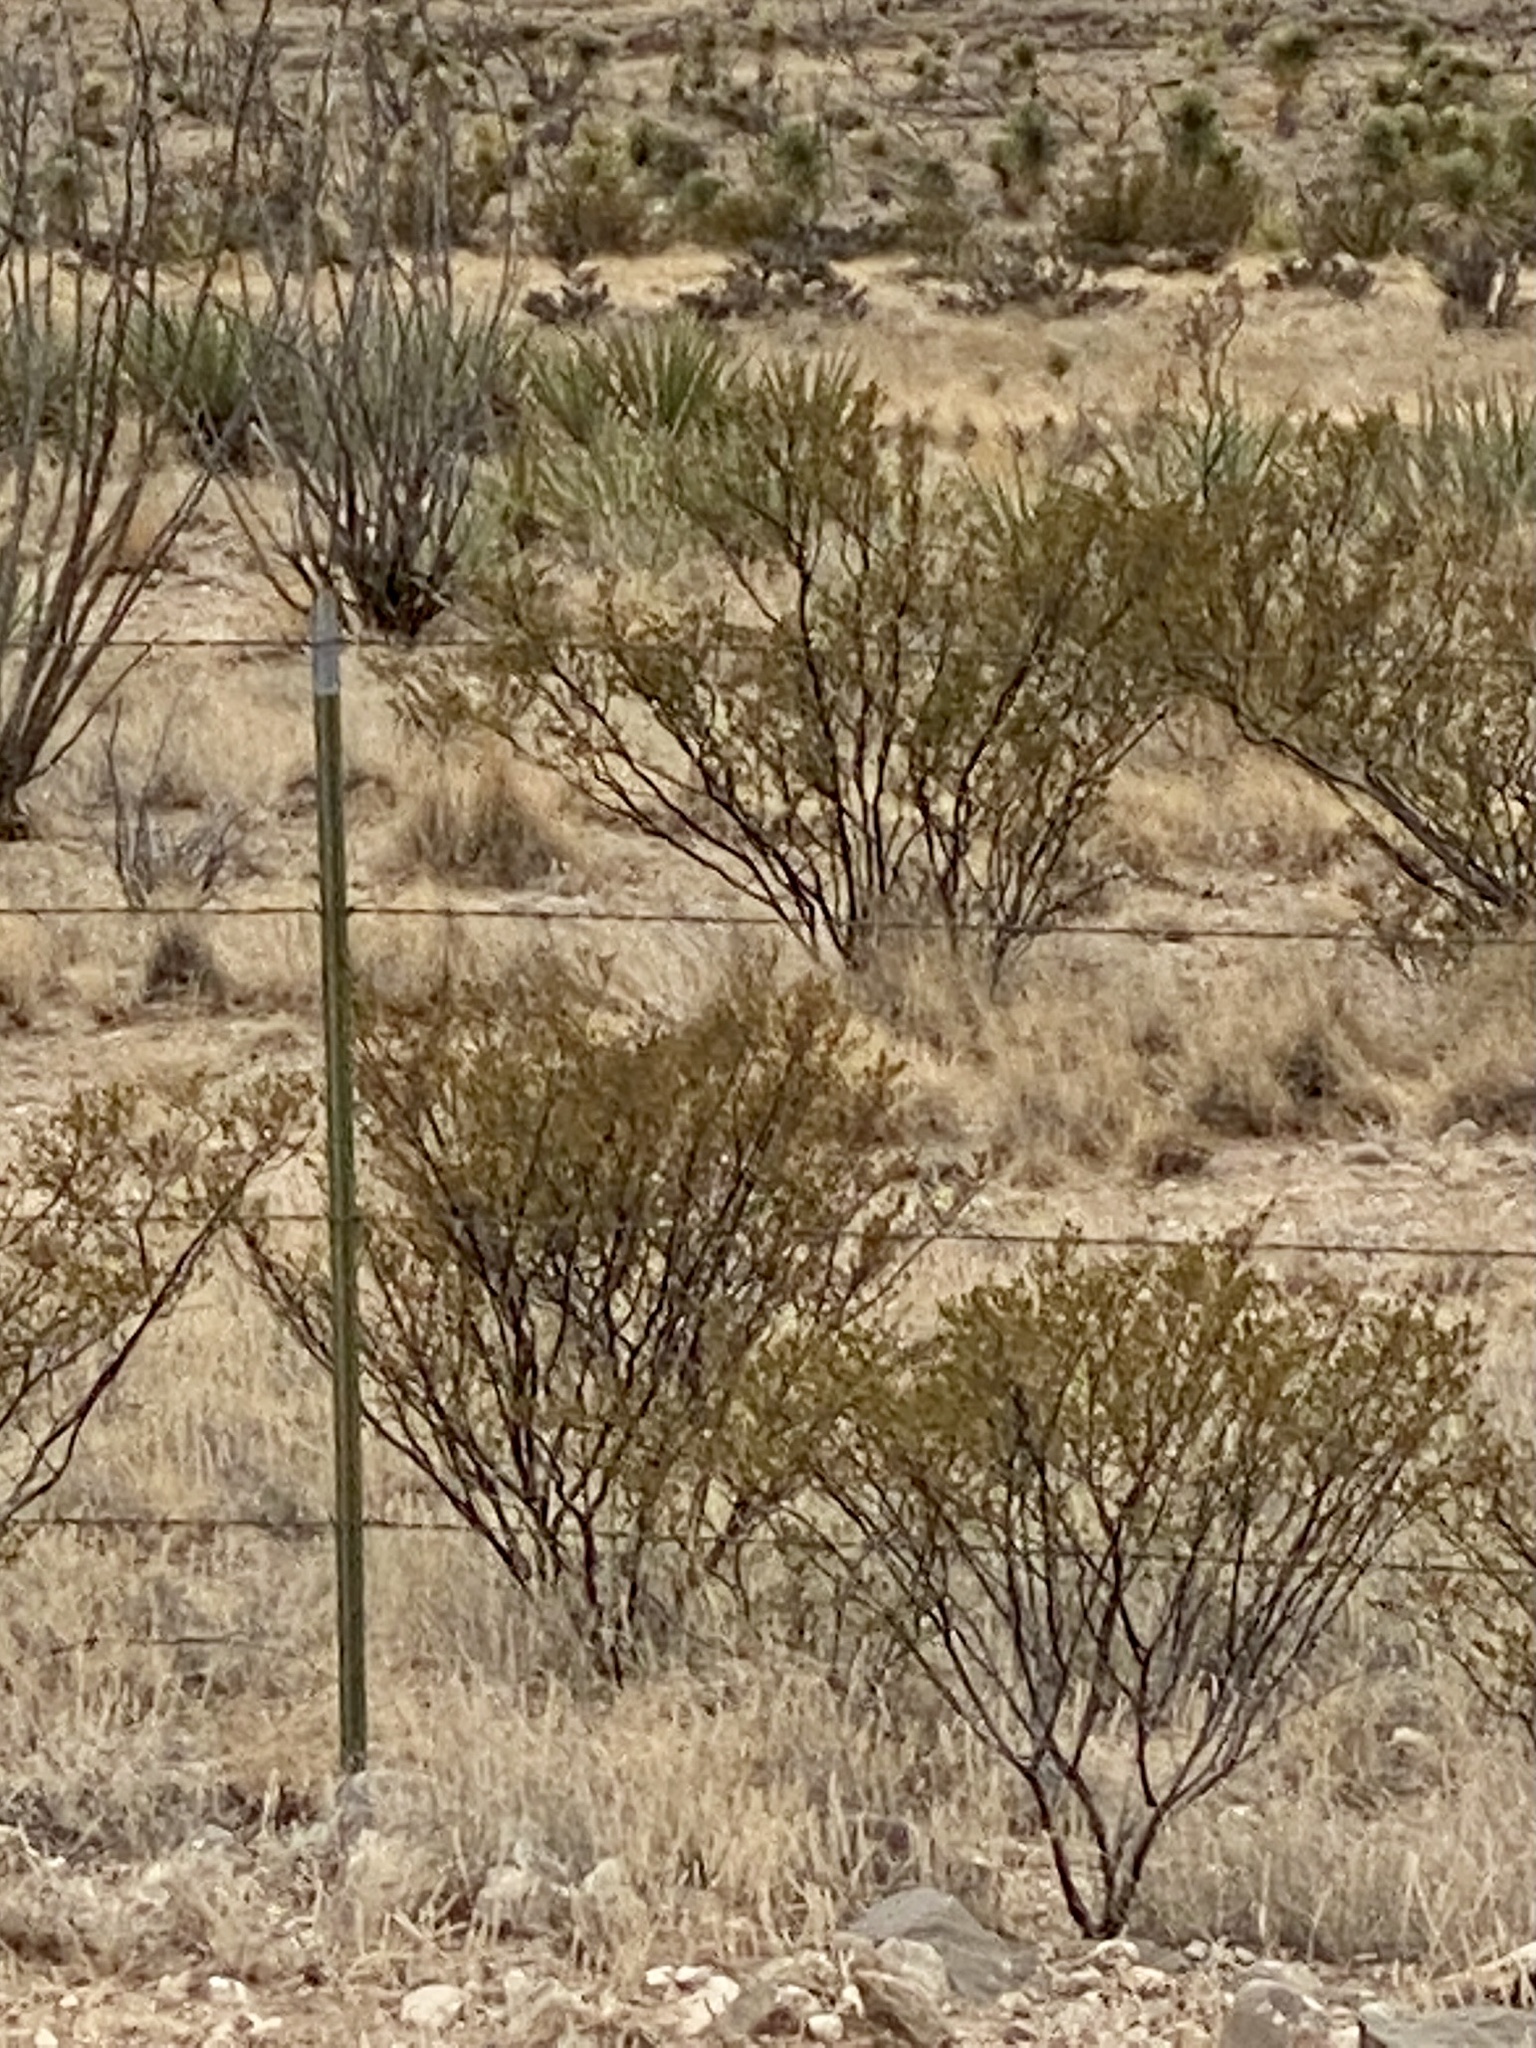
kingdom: Plantae
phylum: Tracheophyta
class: Magnoliopsida
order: Zygophyllales
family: Zygophyllaceae
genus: Larrea
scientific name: Larrea tridentata
